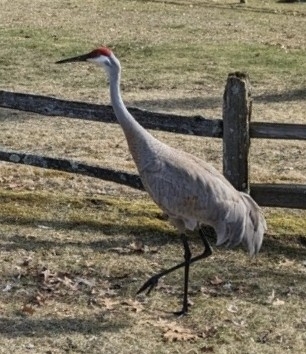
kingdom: Animalia
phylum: Chordata
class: Aves
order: Gruiformes
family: Gruidae
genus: Grus
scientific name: Grus canadensis
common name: Sandhill crane
